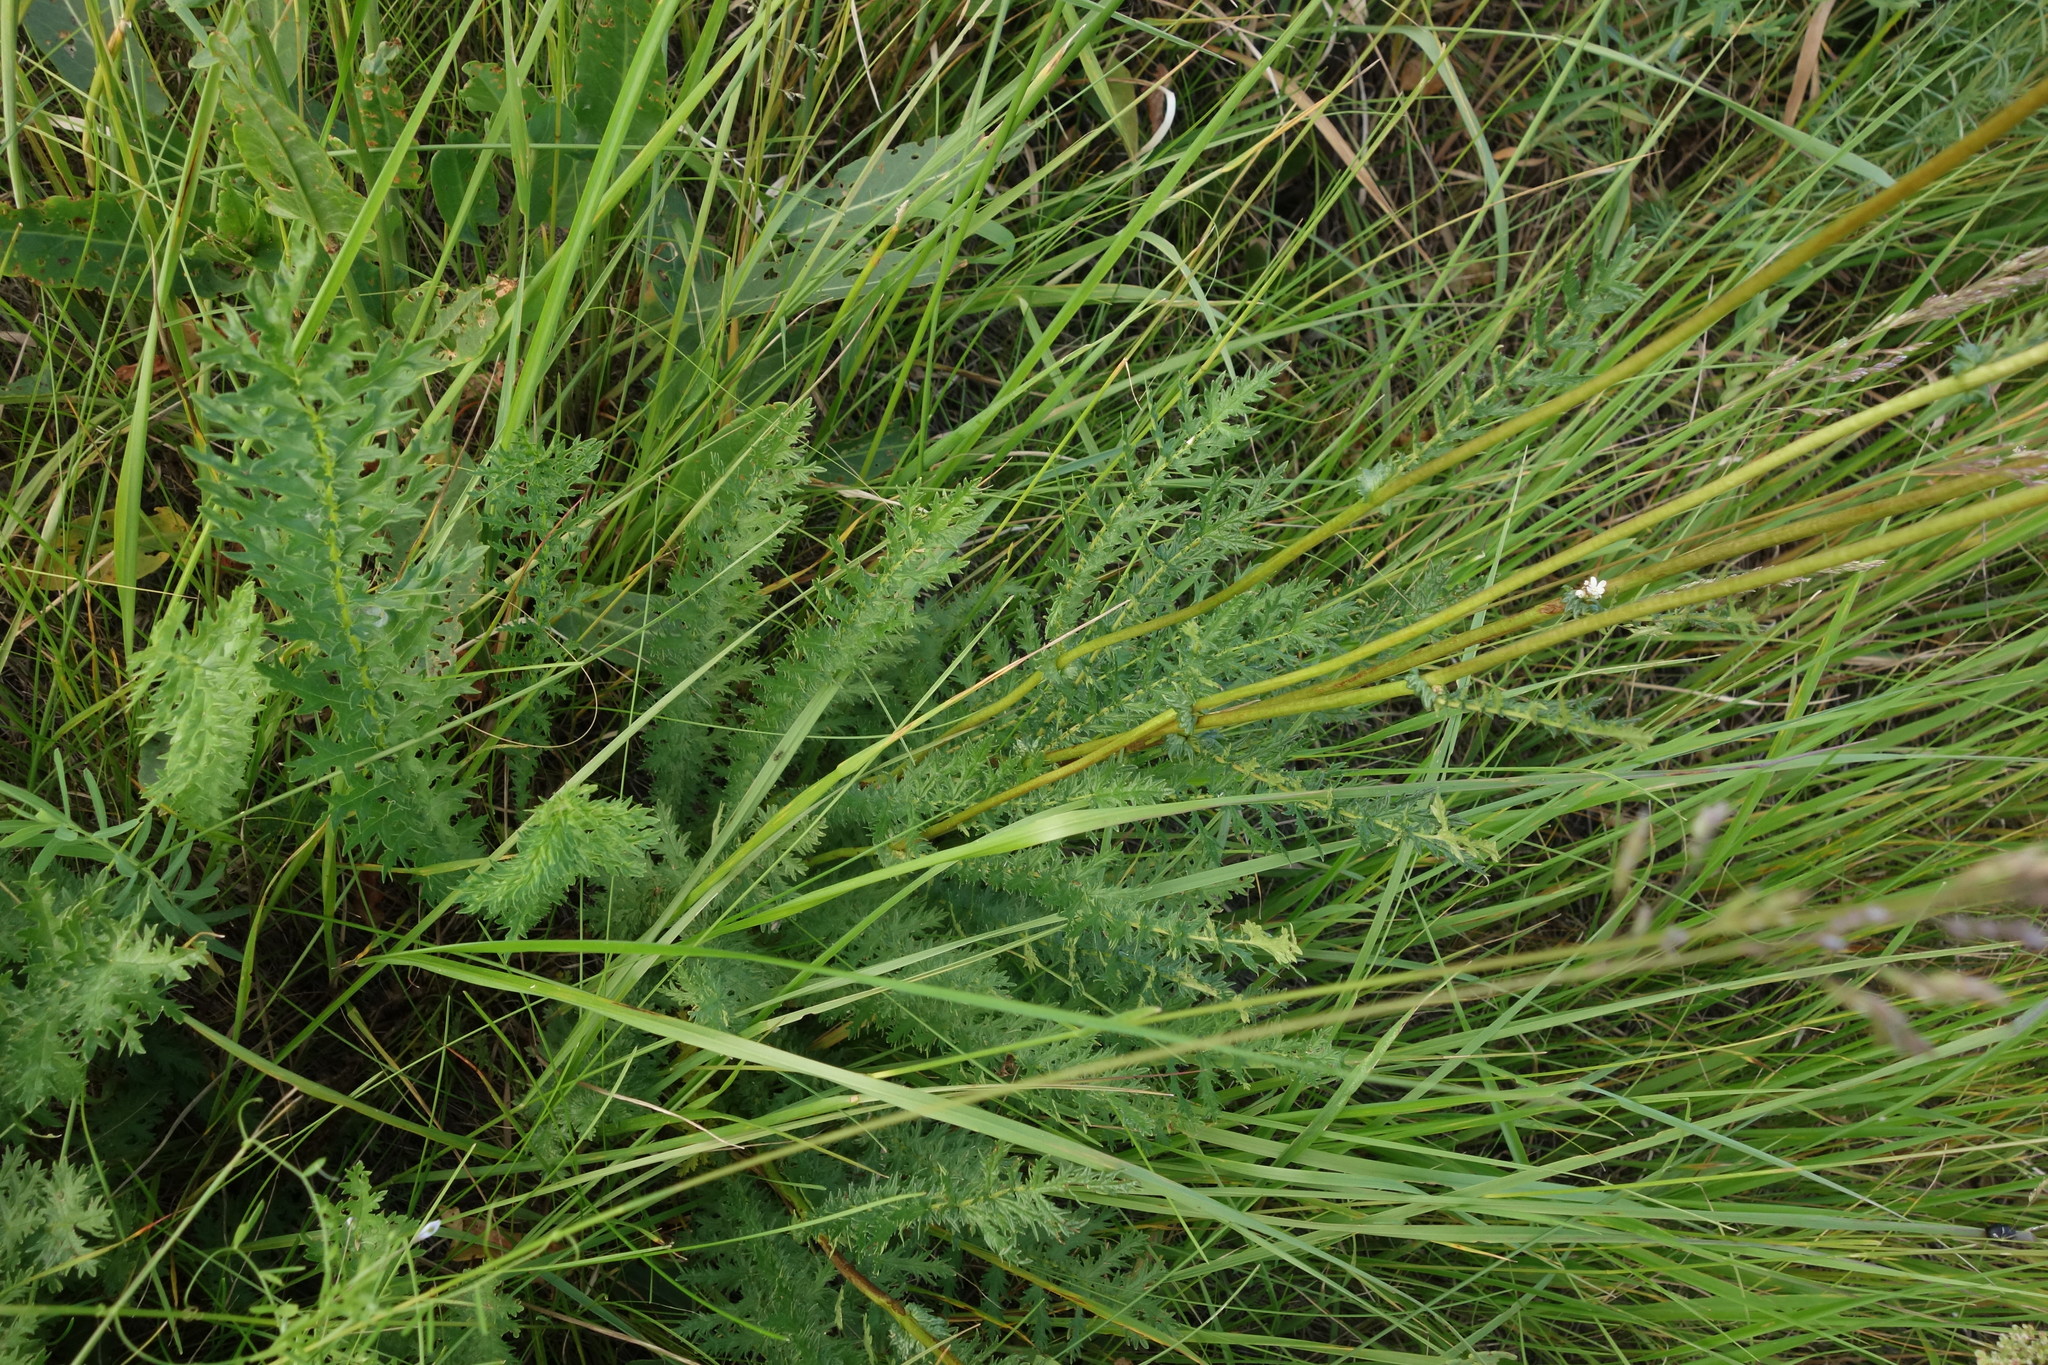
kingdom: Plantae
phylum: Tracheophyta
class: Magnoliopsida
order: Rosales
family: Rosaceae
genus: Filipendula
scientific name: Filipendula vulgaris
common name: Dropwort
